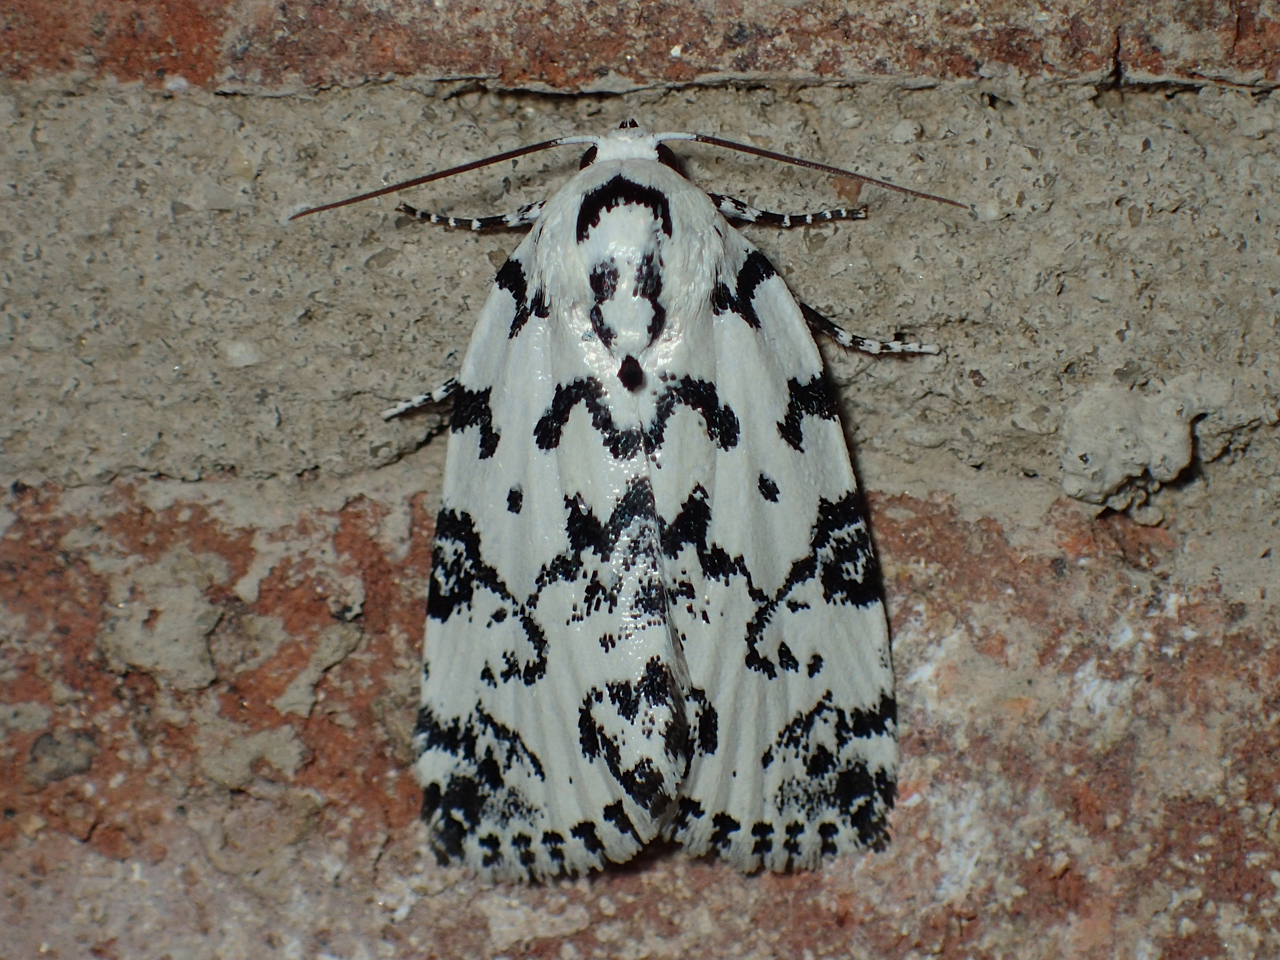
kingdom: Animalia
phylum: Arthropoda
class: Insecta
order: Lepidoptera
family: Noctuidae
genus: Polygrammate
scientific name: Polygrammate hebraeicum
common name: Hebrew moth
